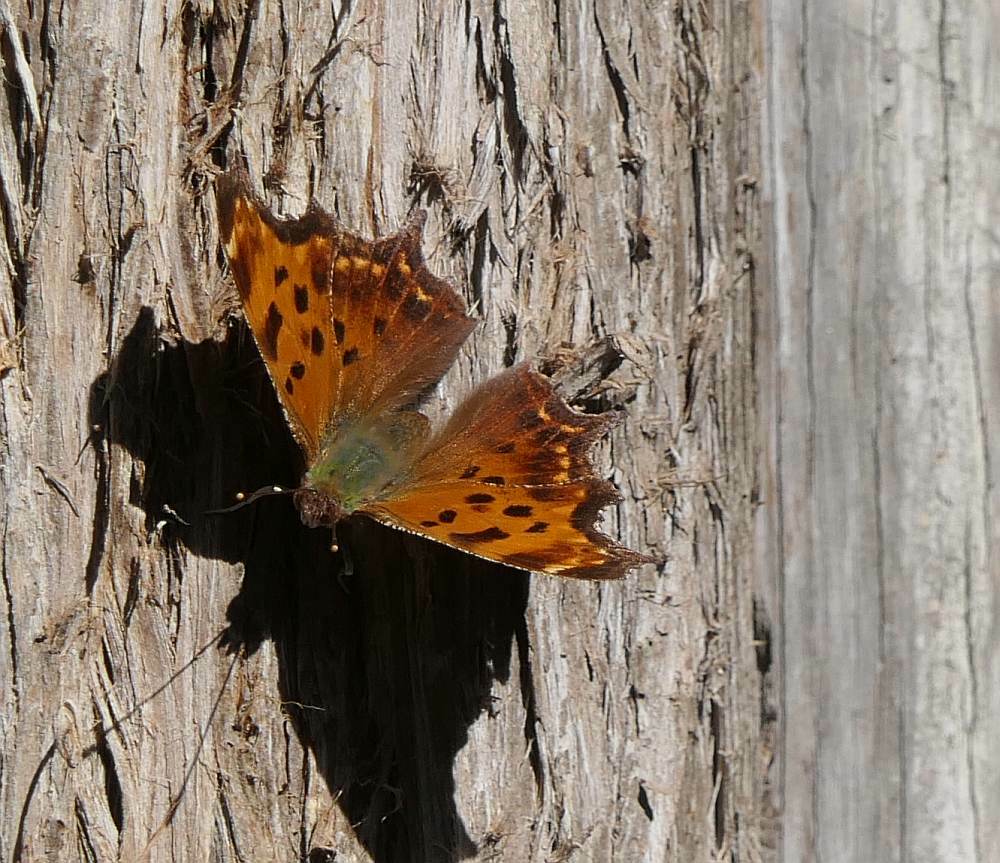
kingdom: Animalia
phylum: Arthropoda
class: Insecta
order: Lepidoptera
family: Nymphalidae
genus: Polygonia
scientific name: Polygonia comma
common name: Eastern comma
